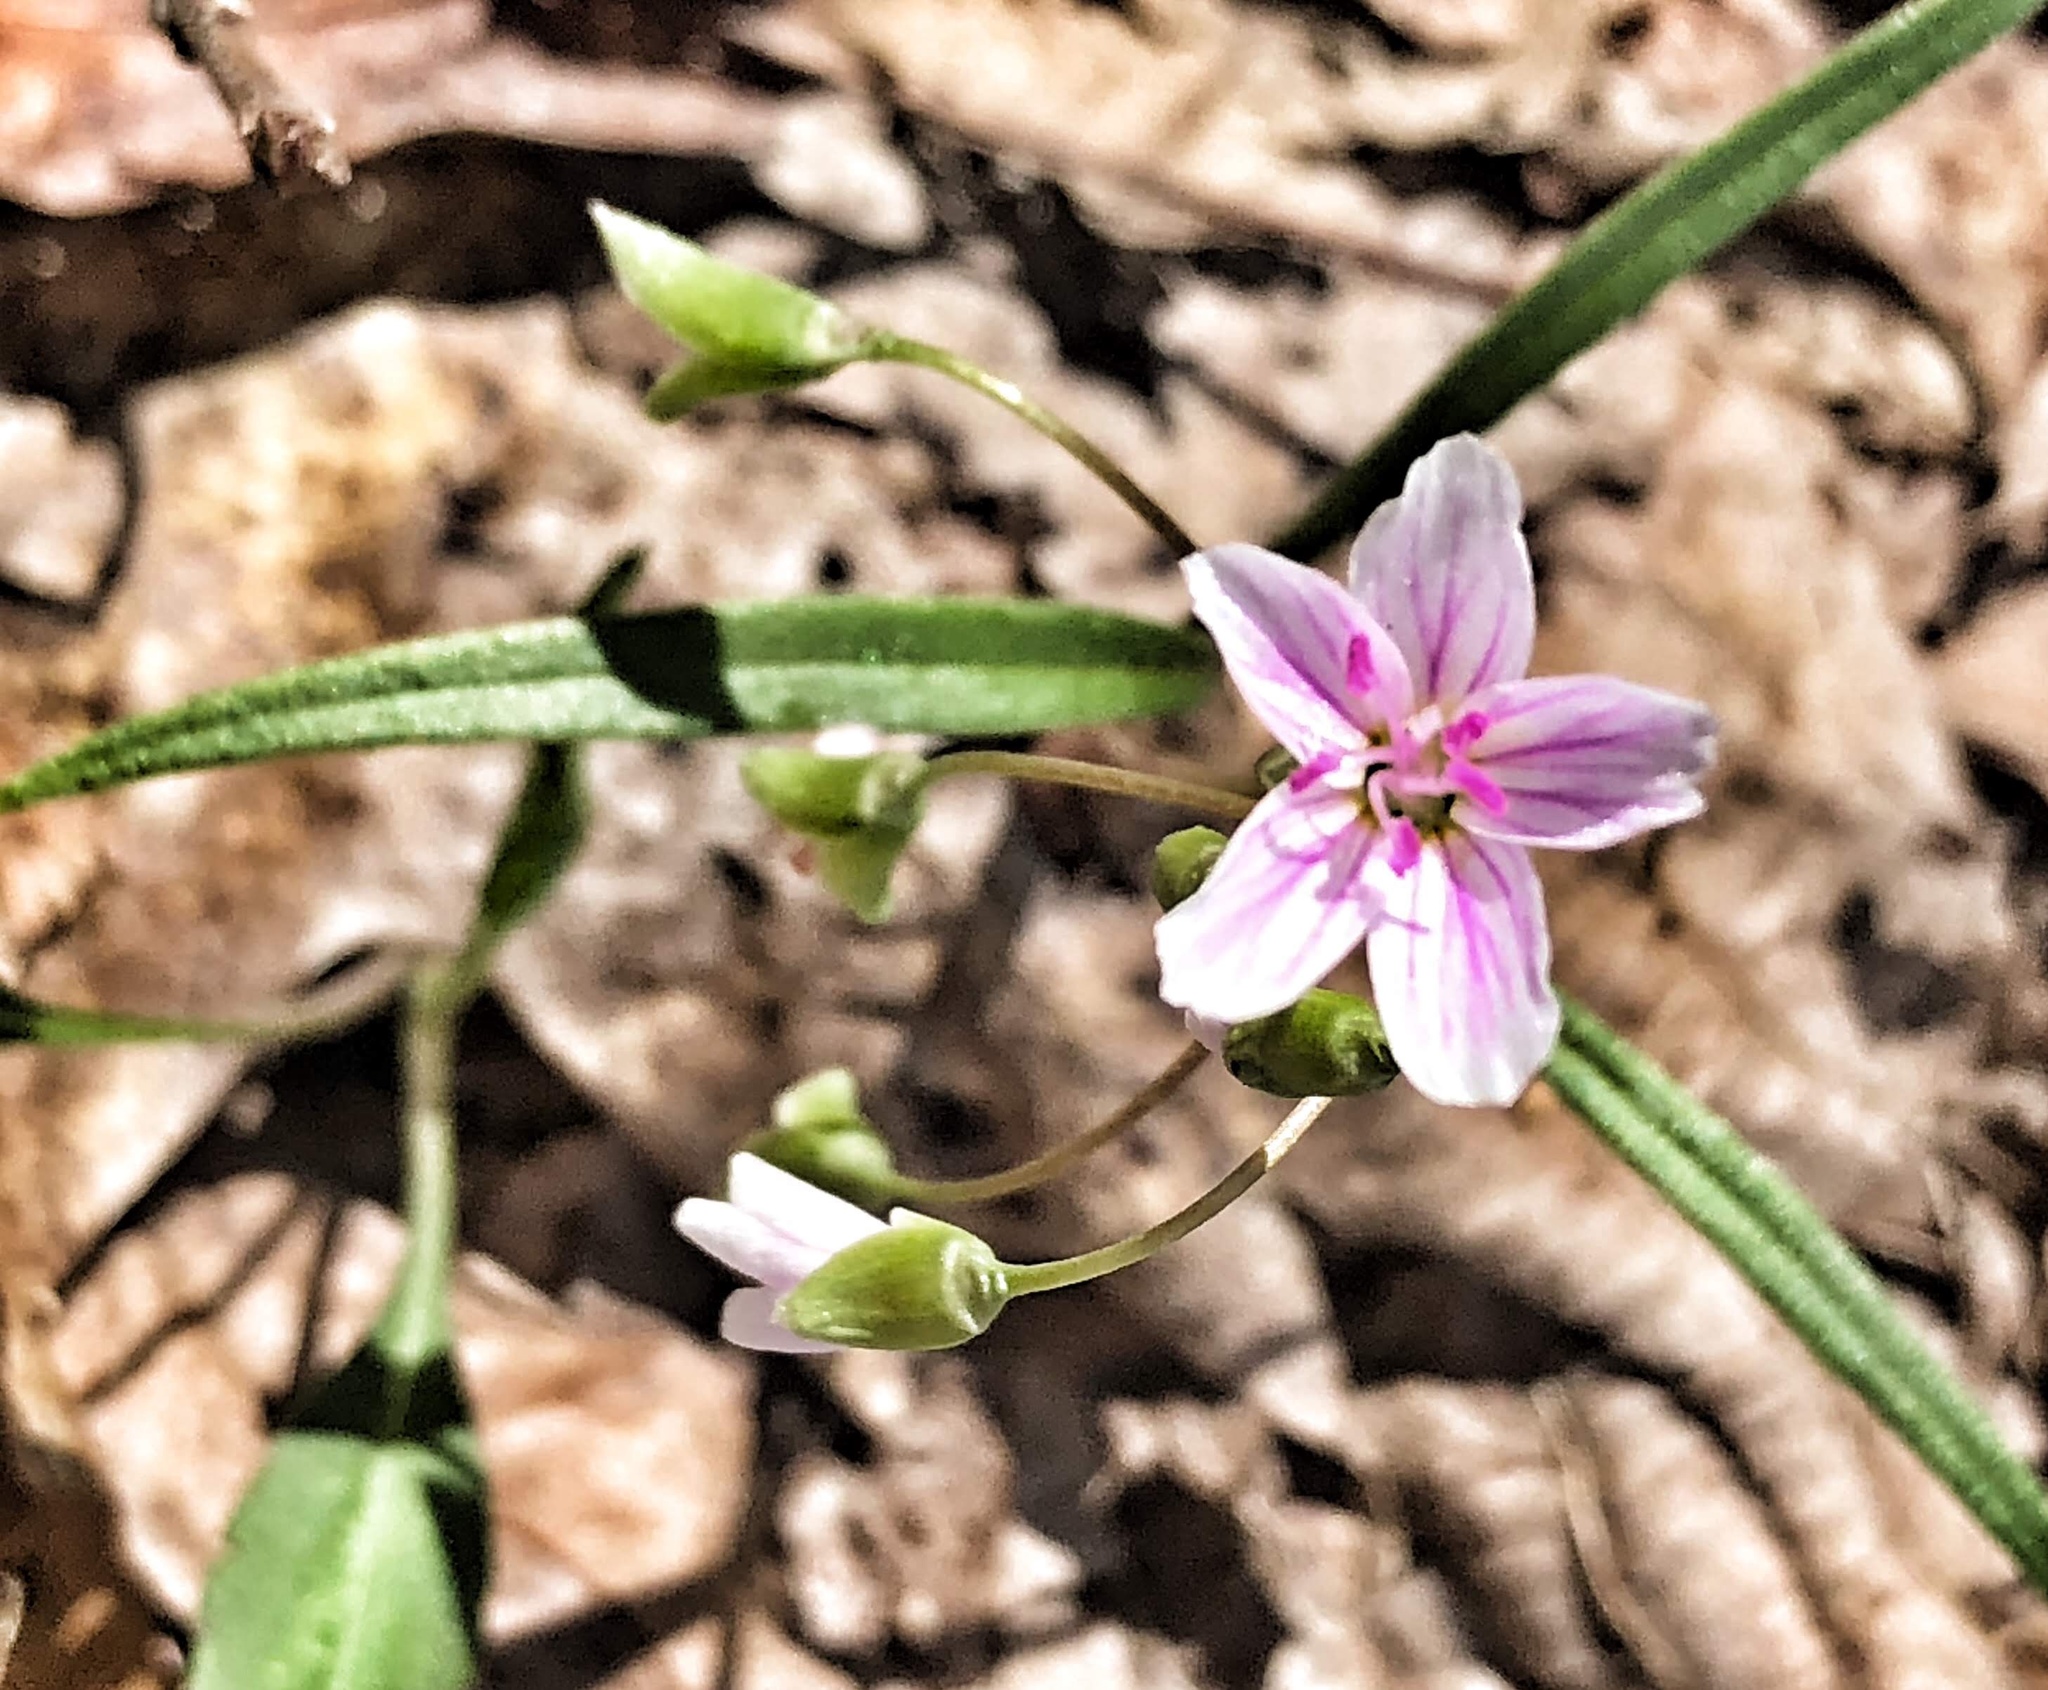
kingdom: Plantae
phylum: Tracheophyta
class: Magnoliopsida
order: Caryophyllales
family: Montiaceae
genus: Claytonia
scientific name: Claytonia virginica
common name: Virginia springbeauty
